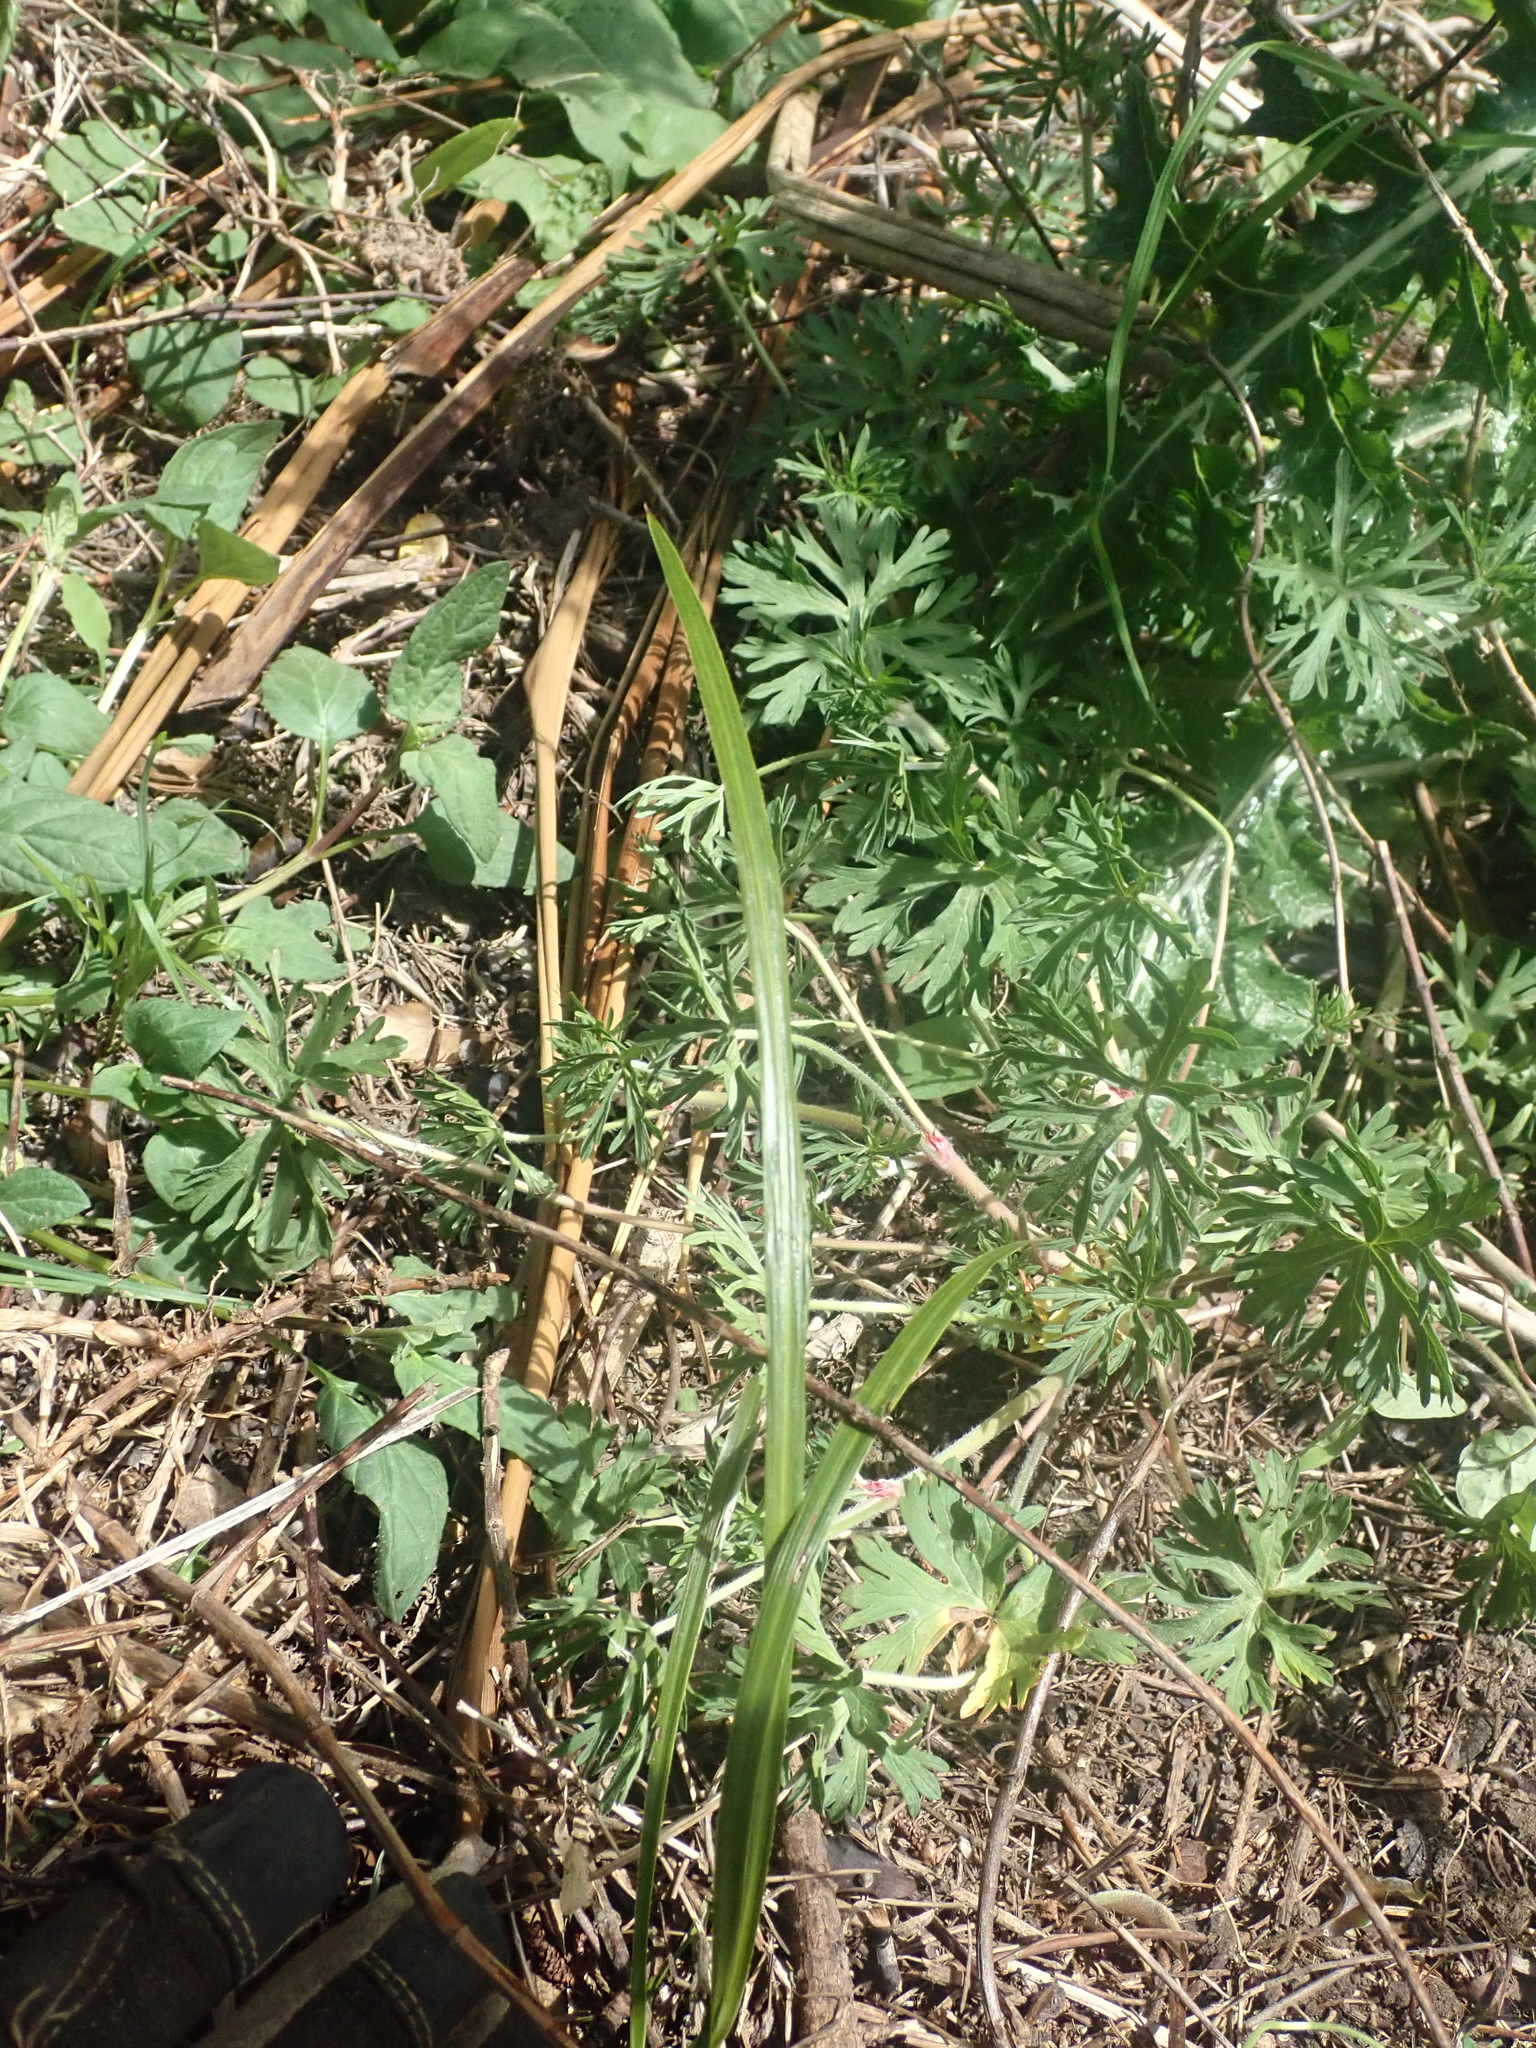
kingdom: Plantae
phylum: Tracheophyta
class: Magnoliopsida
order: Geraniales
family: Geraniaceae
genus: Geranium
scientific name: Geranium dissectum
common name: Cut-leaved crane's-bill
